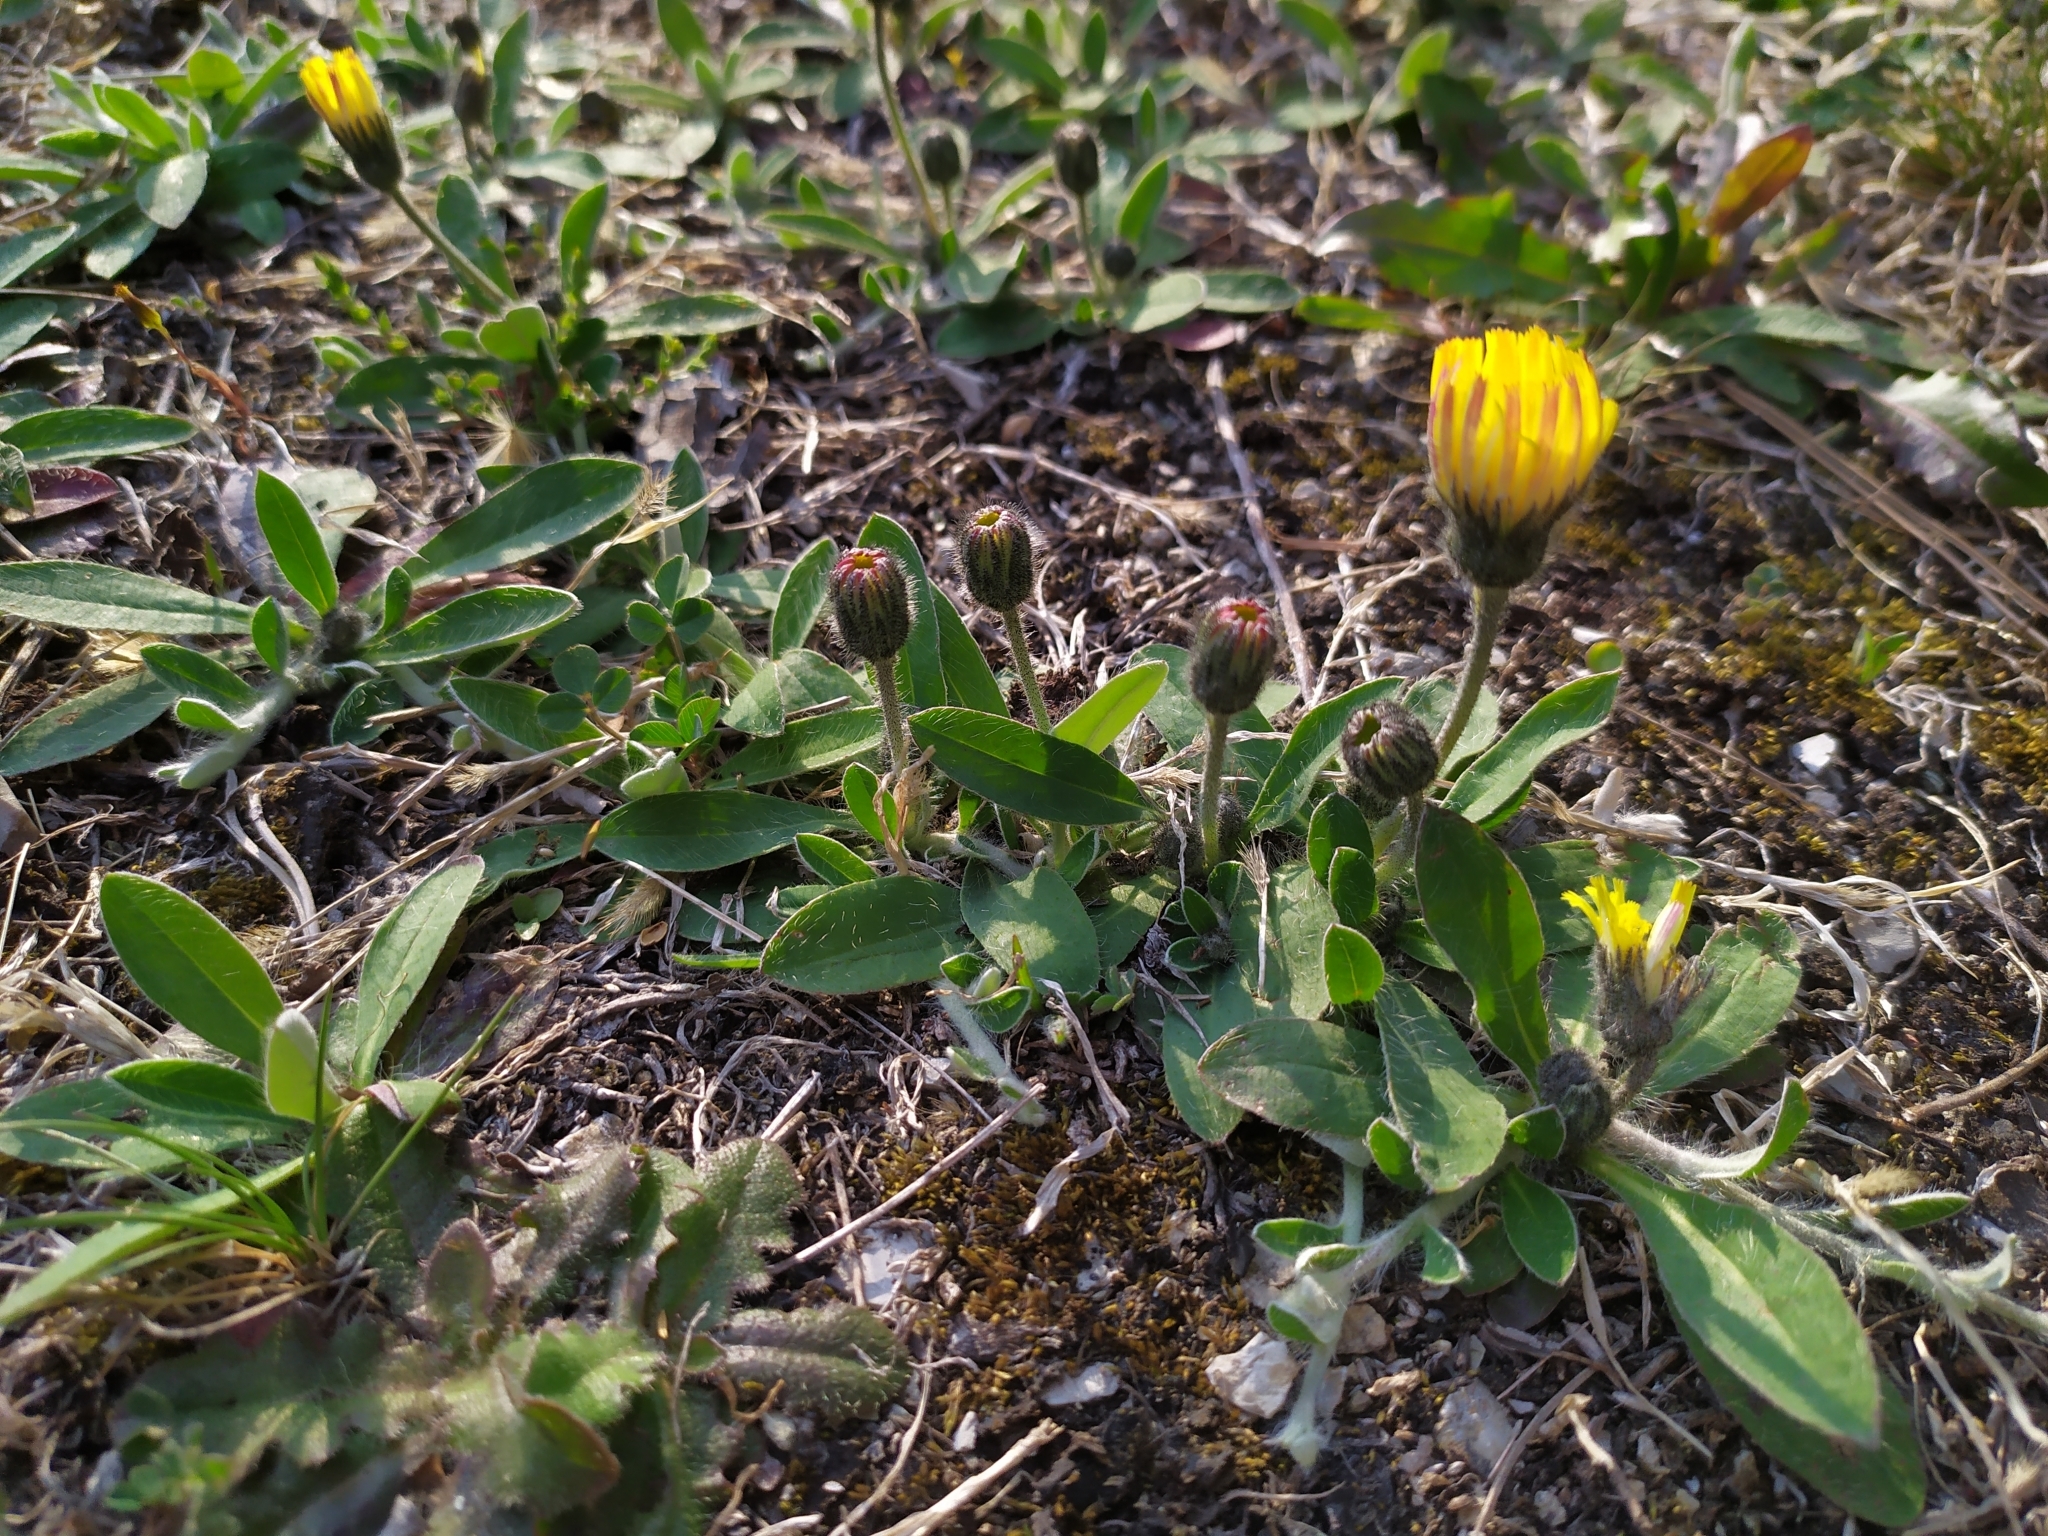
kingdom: Plantae
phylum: Tracheophyta
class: Magnoliopsida
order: Asterales
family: Asteraceae
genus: Pilosella
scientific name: Pilosella officinarum
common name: Mouse-ear hawkweed
